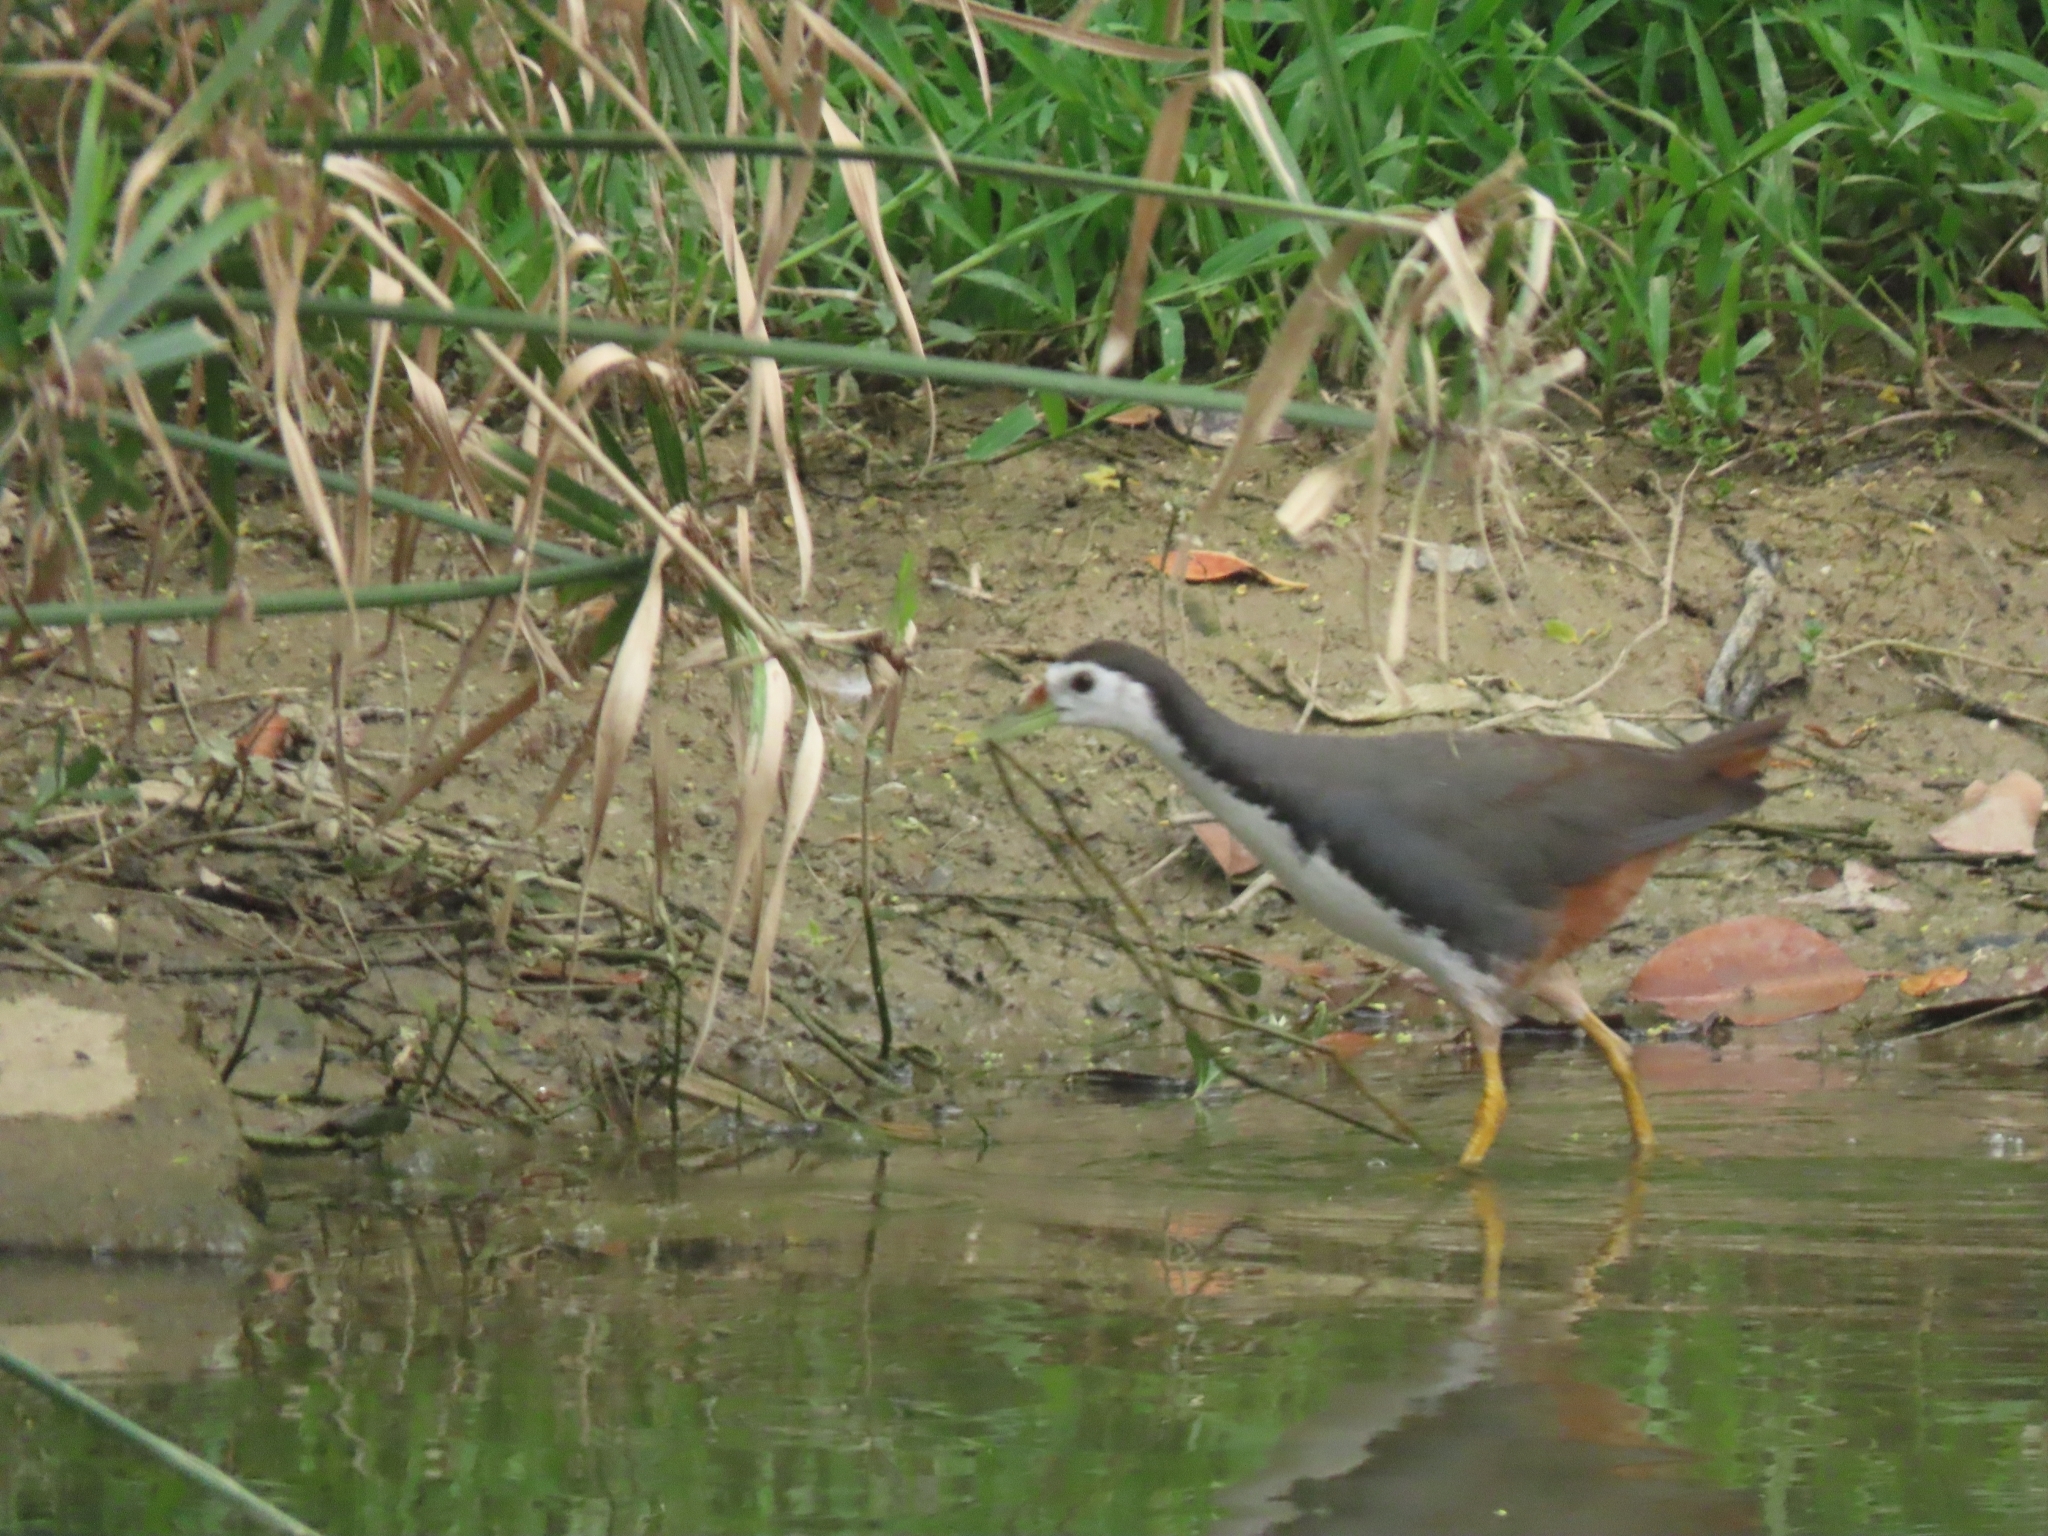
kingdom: Animalia
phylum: Chordata
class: Aves
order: Gruiformes
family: Rallidae
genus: Amaurornis
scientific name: Amaurornis phoenicurus
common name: White-breasted waterhen
